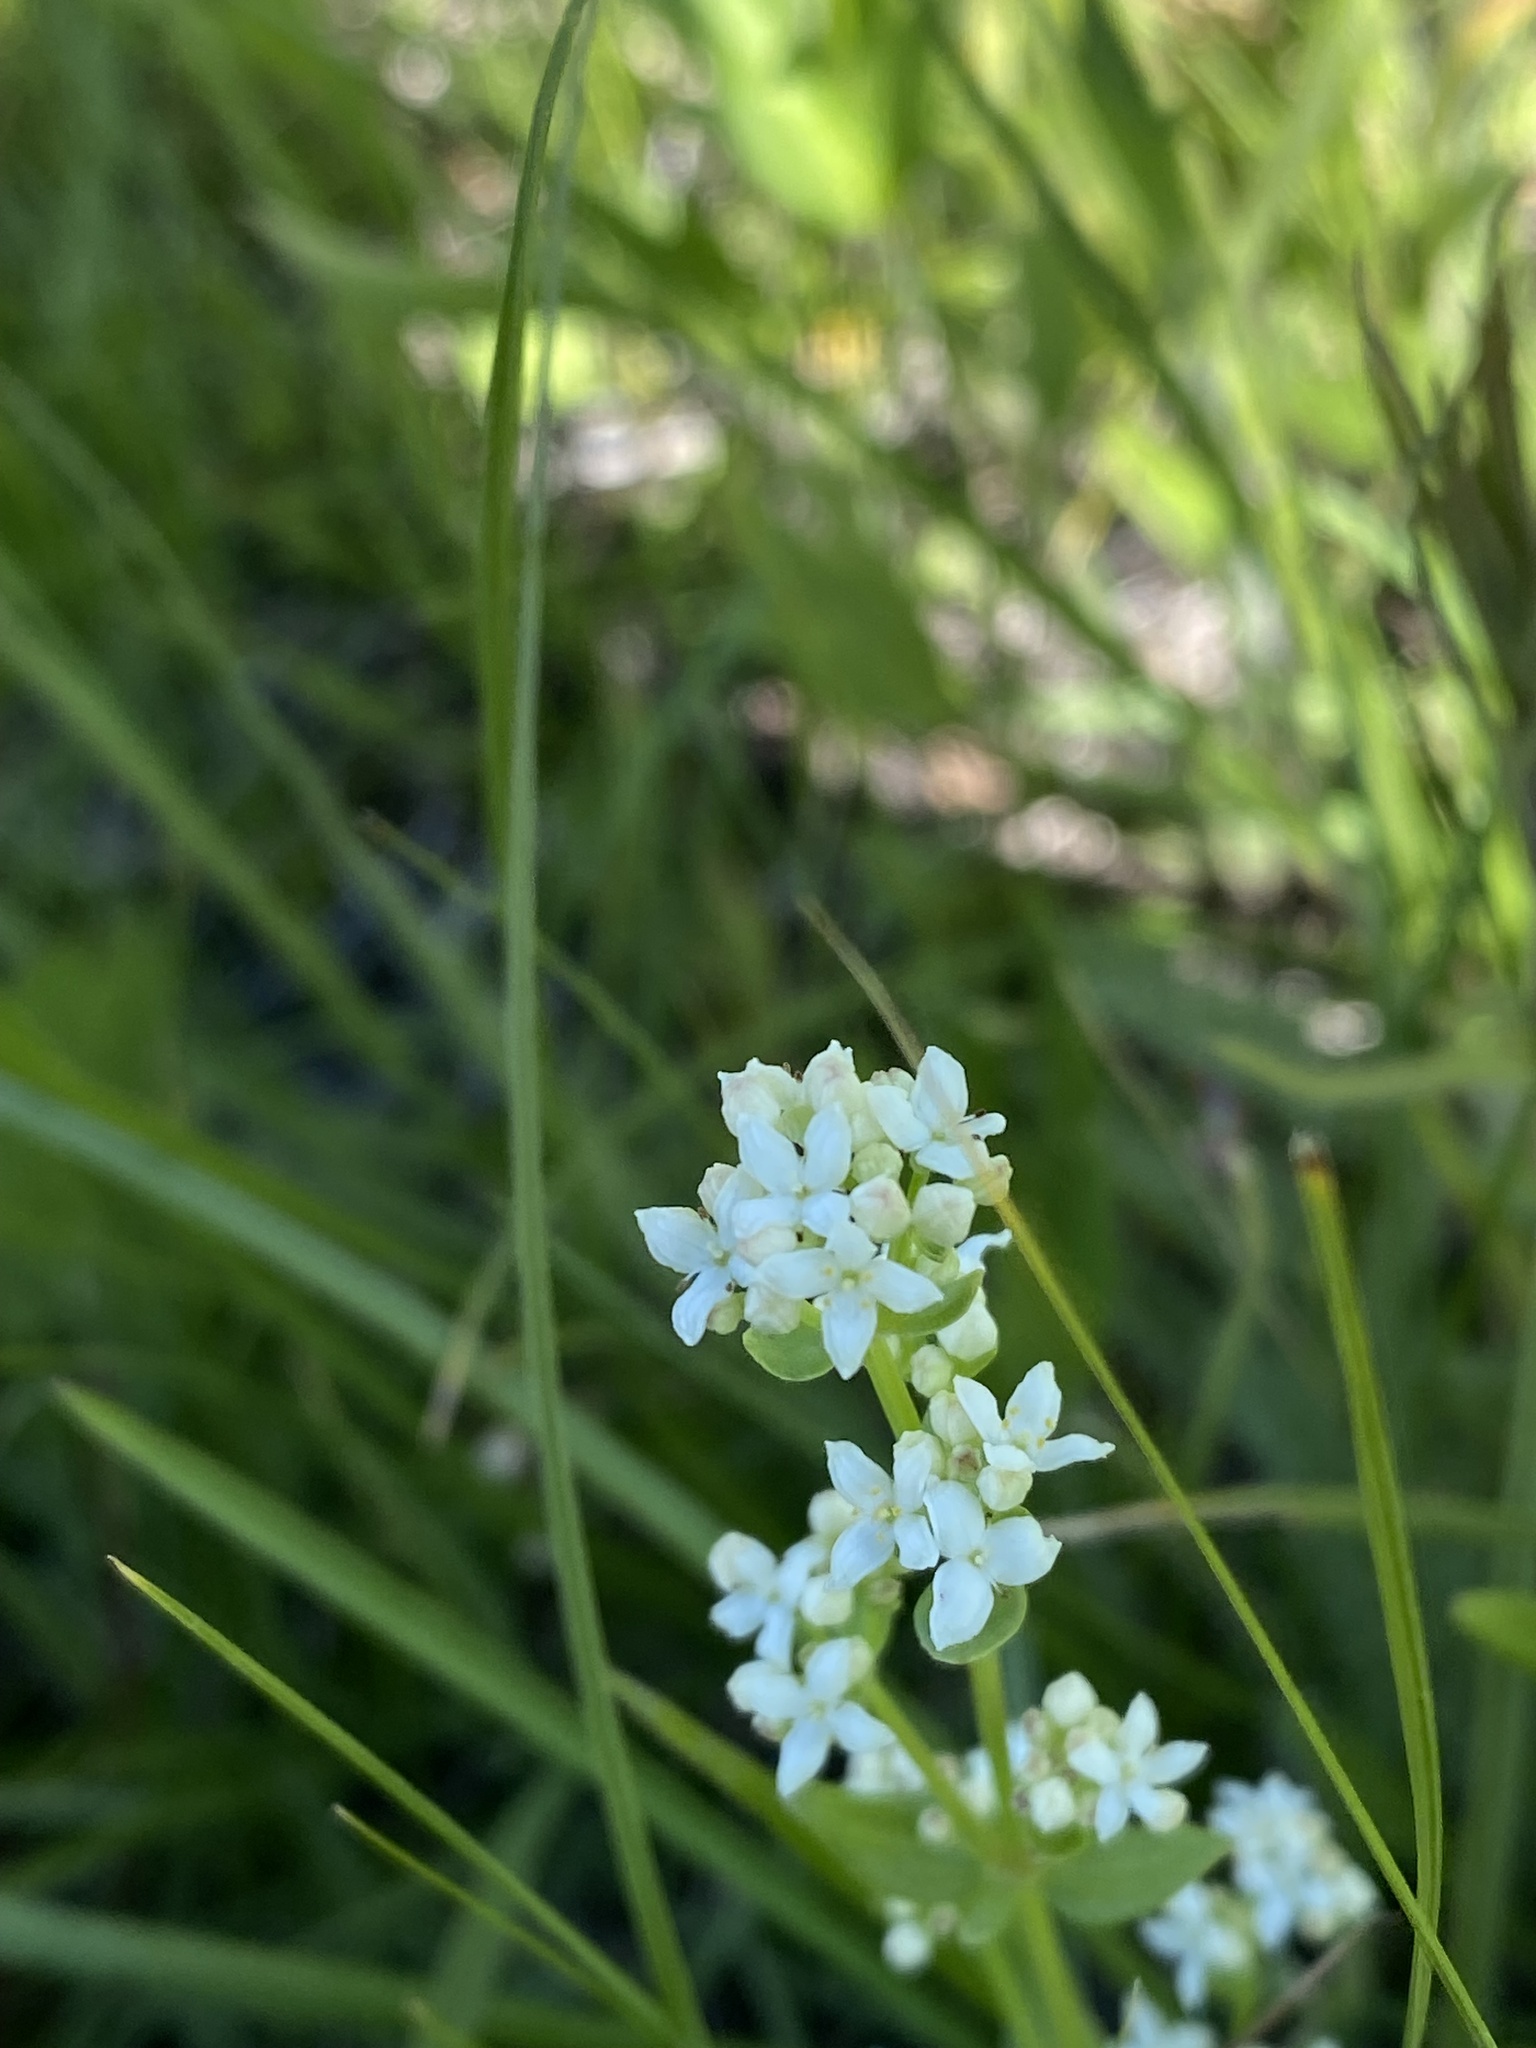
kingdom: Plantae
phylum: Tracheophyta
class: Magnoliopsida
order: Gentianales
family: Rubiaceae
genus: Galium
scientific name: Galium boreale
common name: Northern bedstraw
